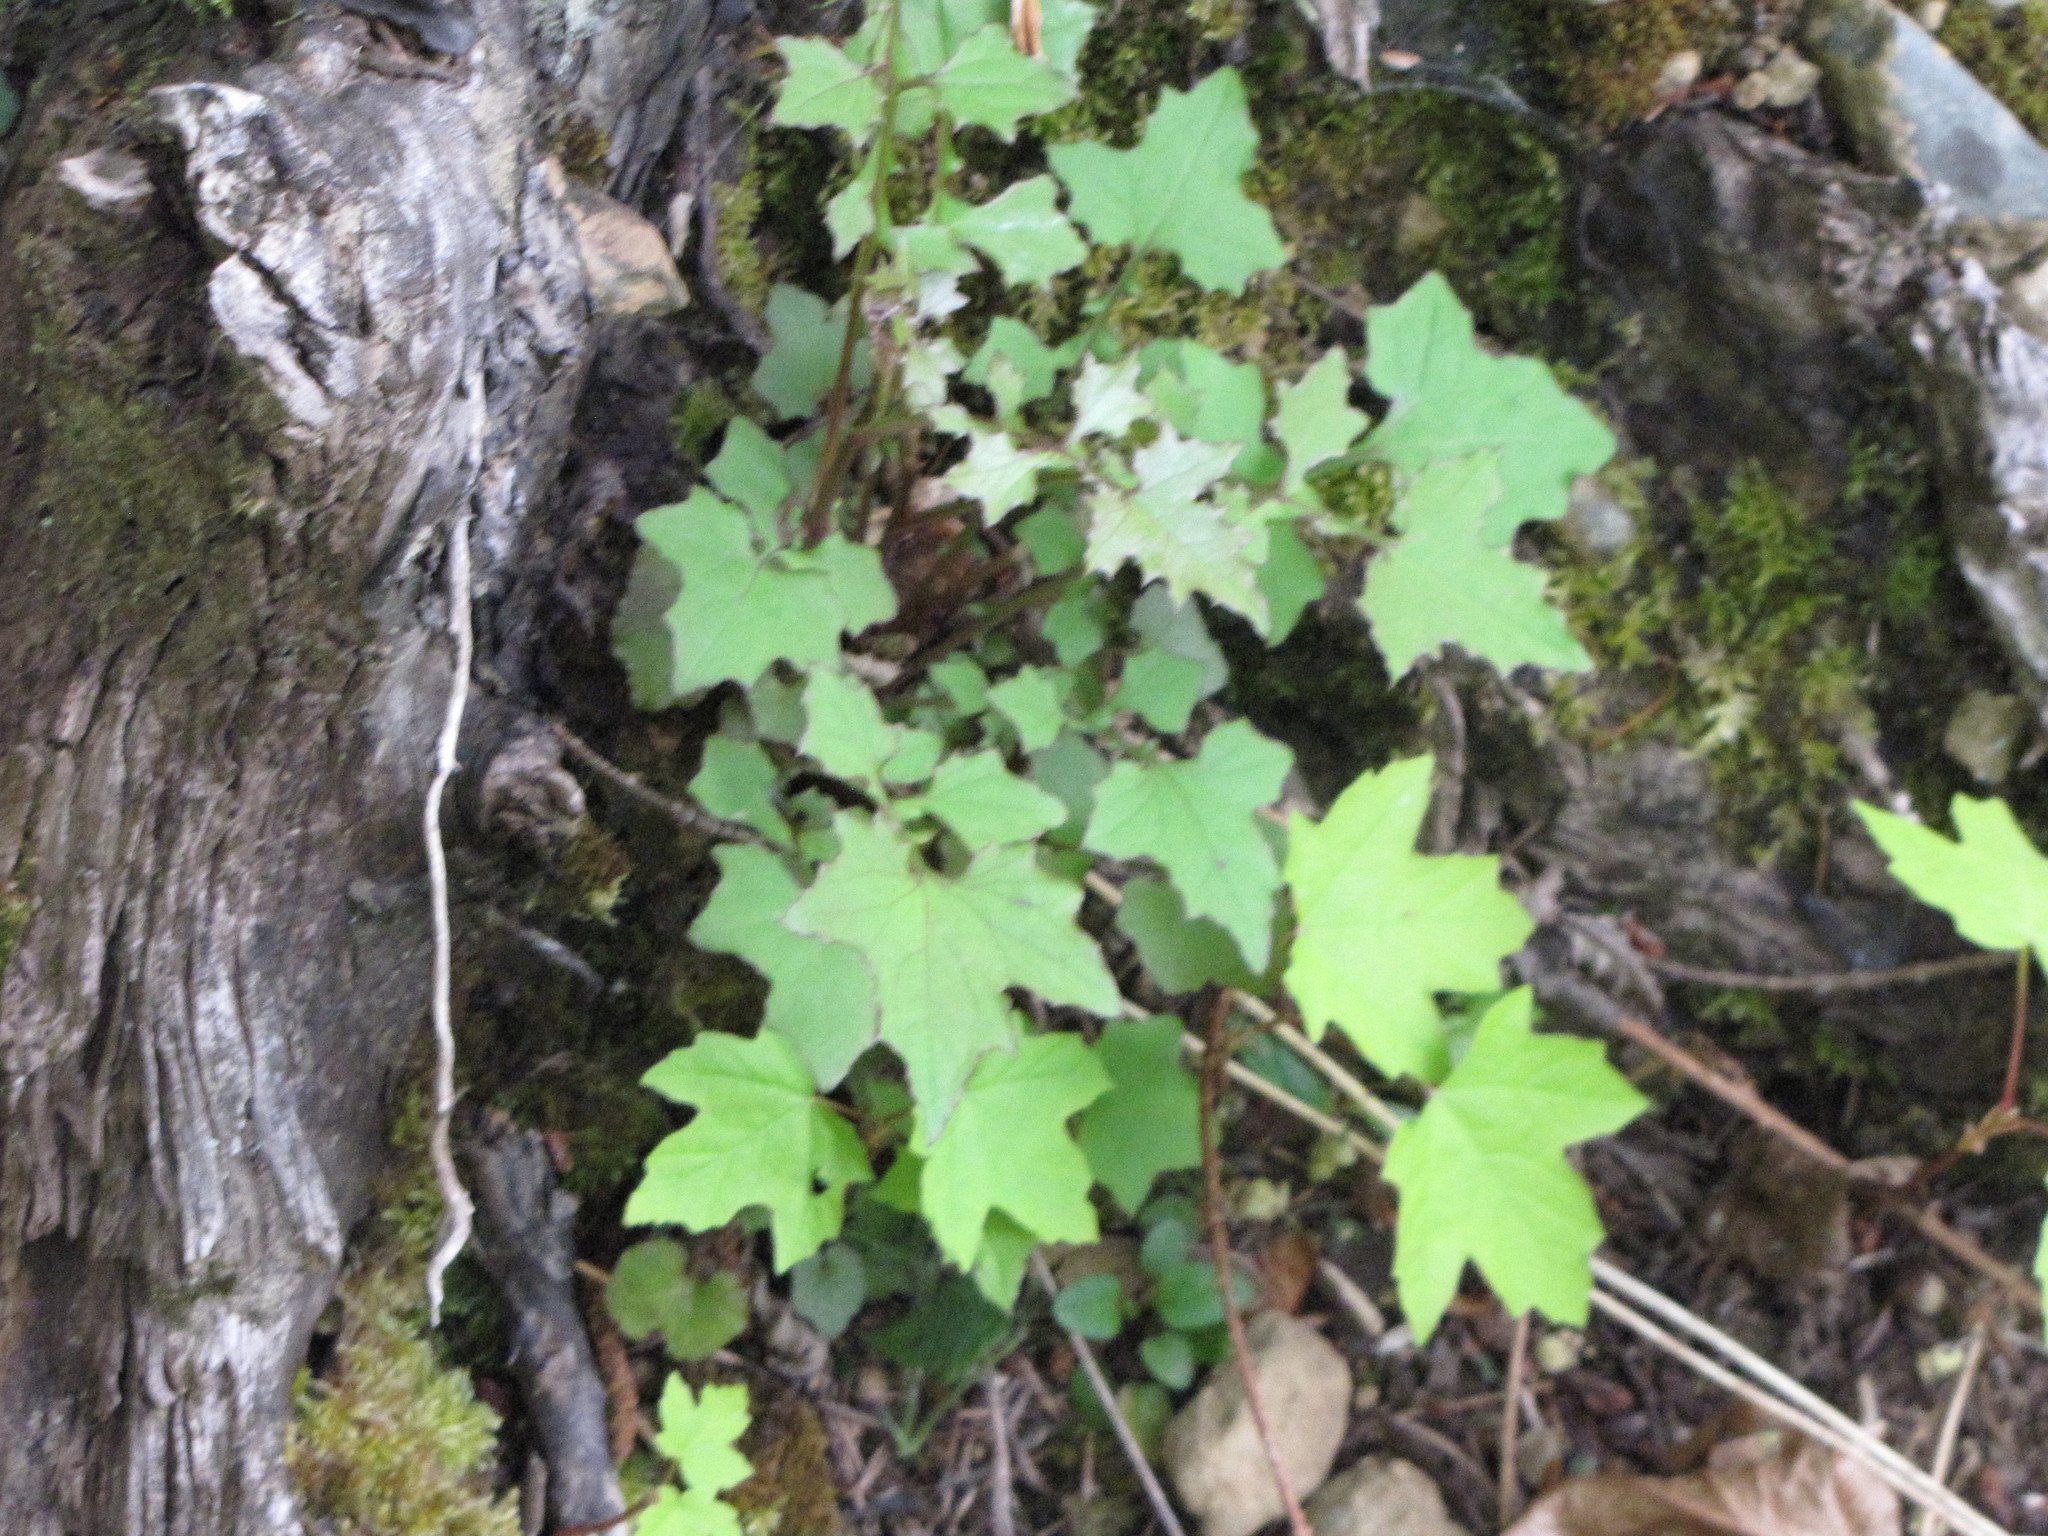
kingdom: Plantae
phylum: Tracheophyta
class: Magnoliopsida
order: Asterales
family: Asteraceae
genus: Mycelis
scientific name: Mycelis muralis
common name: Wall lettuce
